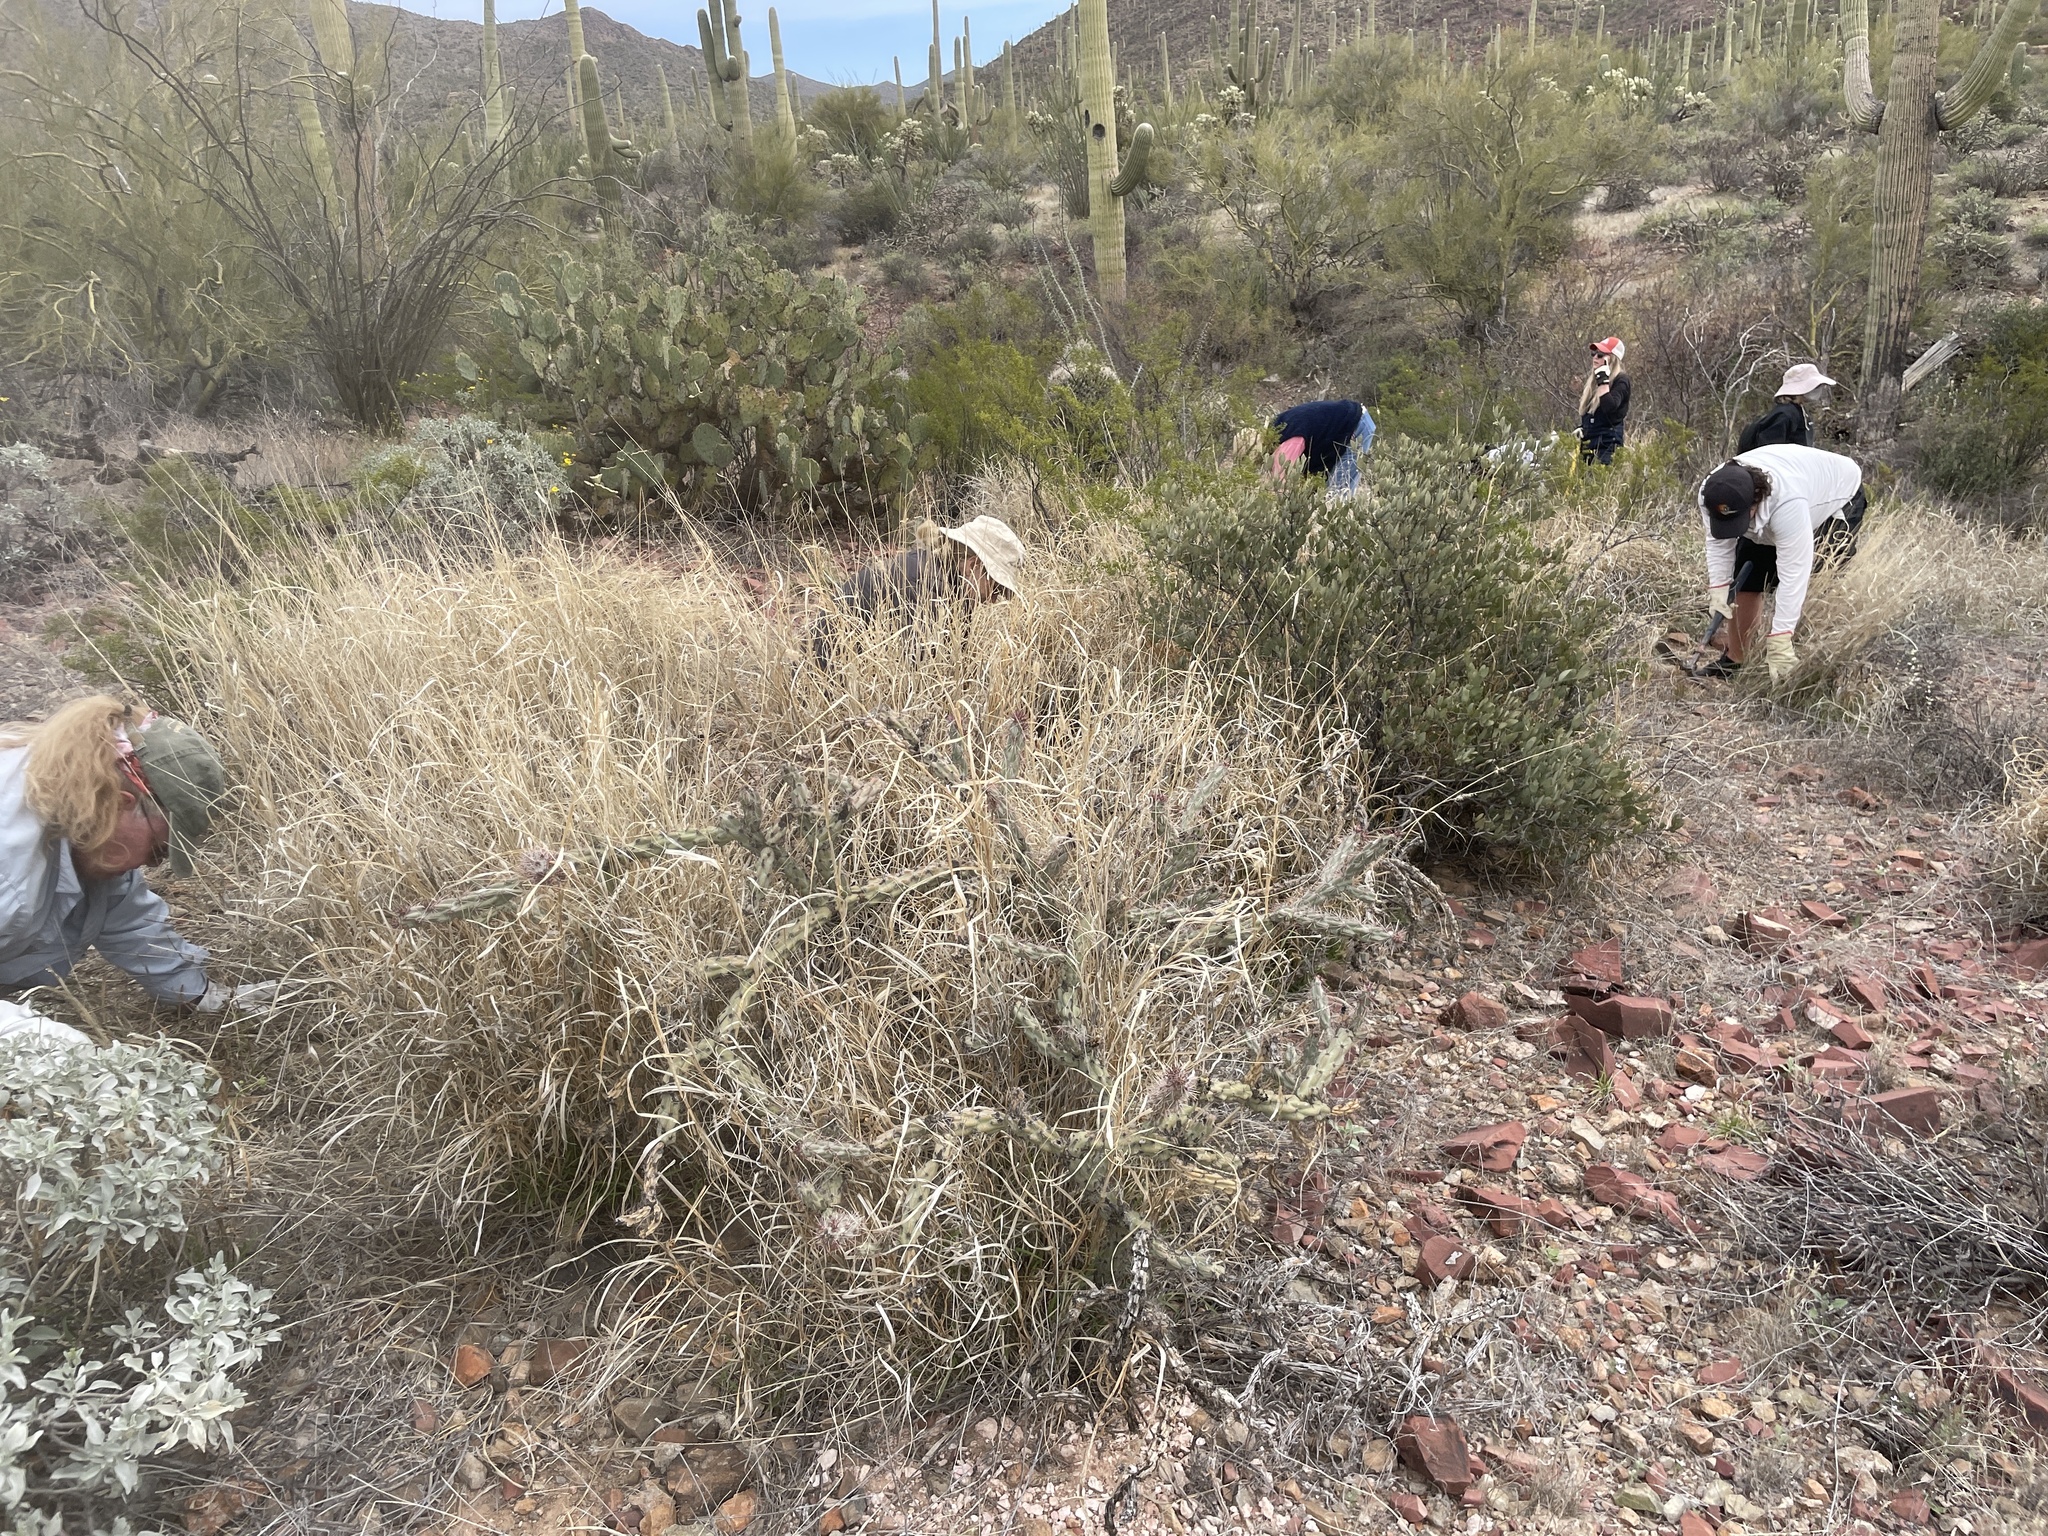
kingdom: Plantae
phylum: Tracheophyta
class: Liliopsida
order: Poales
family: Poaceae
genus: Cenchrus
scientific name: Cenchrus ciliaris
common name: Buffelgrass
